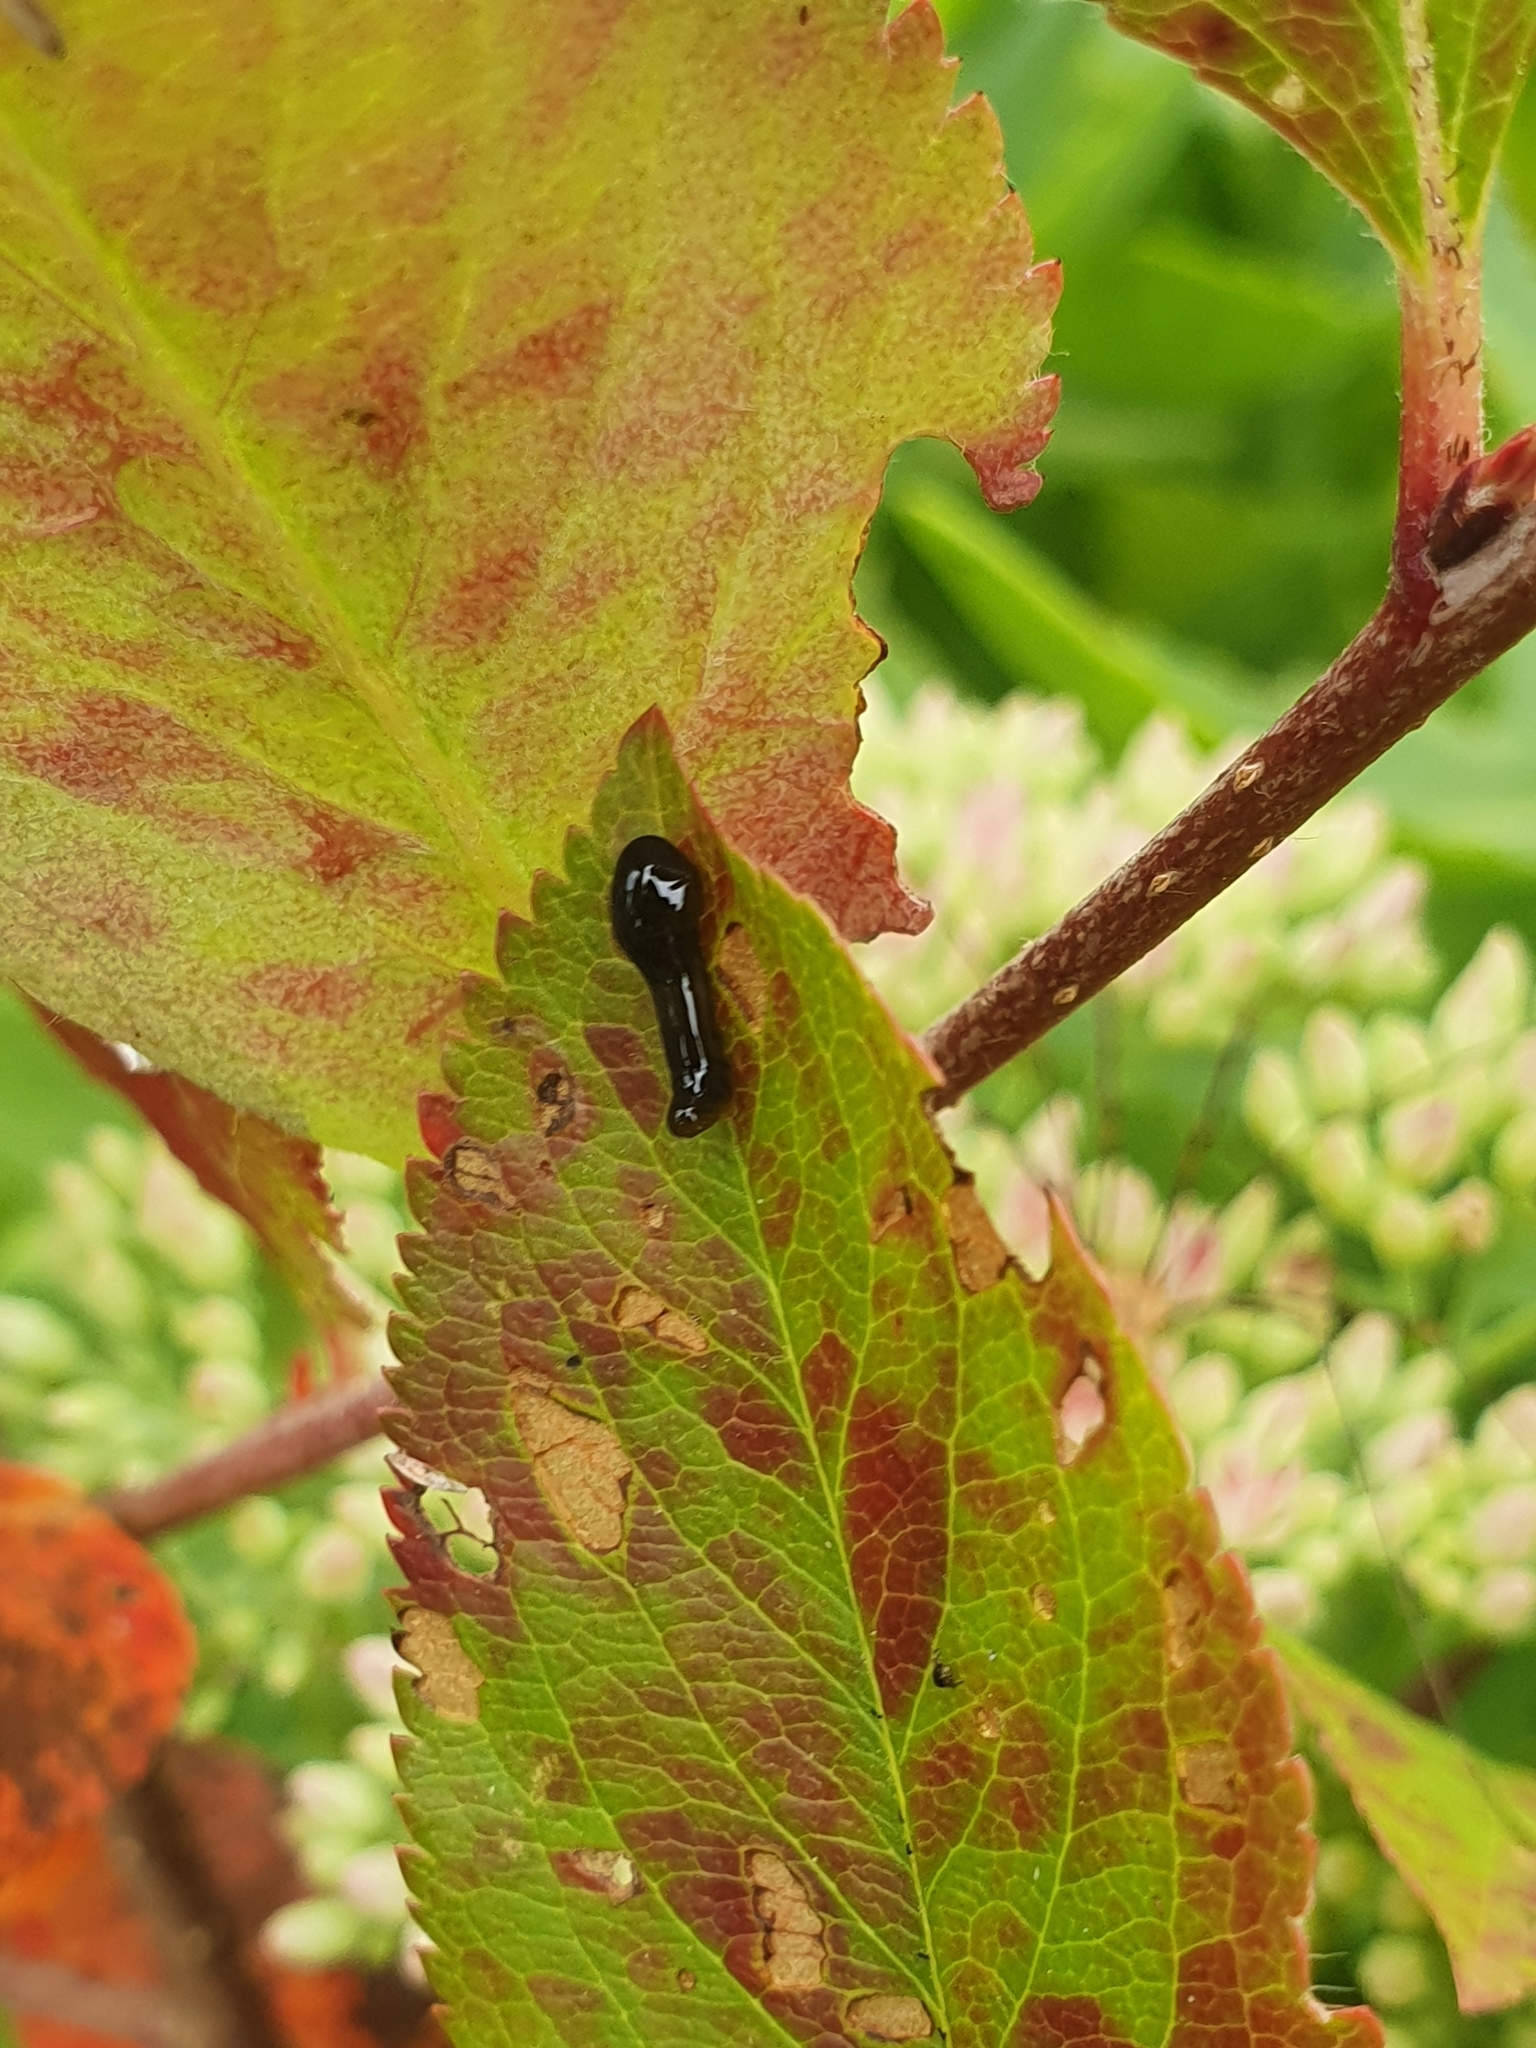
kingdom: Animalia
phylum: Arthropoda
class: Insecta
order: Hymenoptera
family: Tenthredinidae
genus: Caliroa
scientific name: Caliroa cerasi
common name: Pear sawfly
